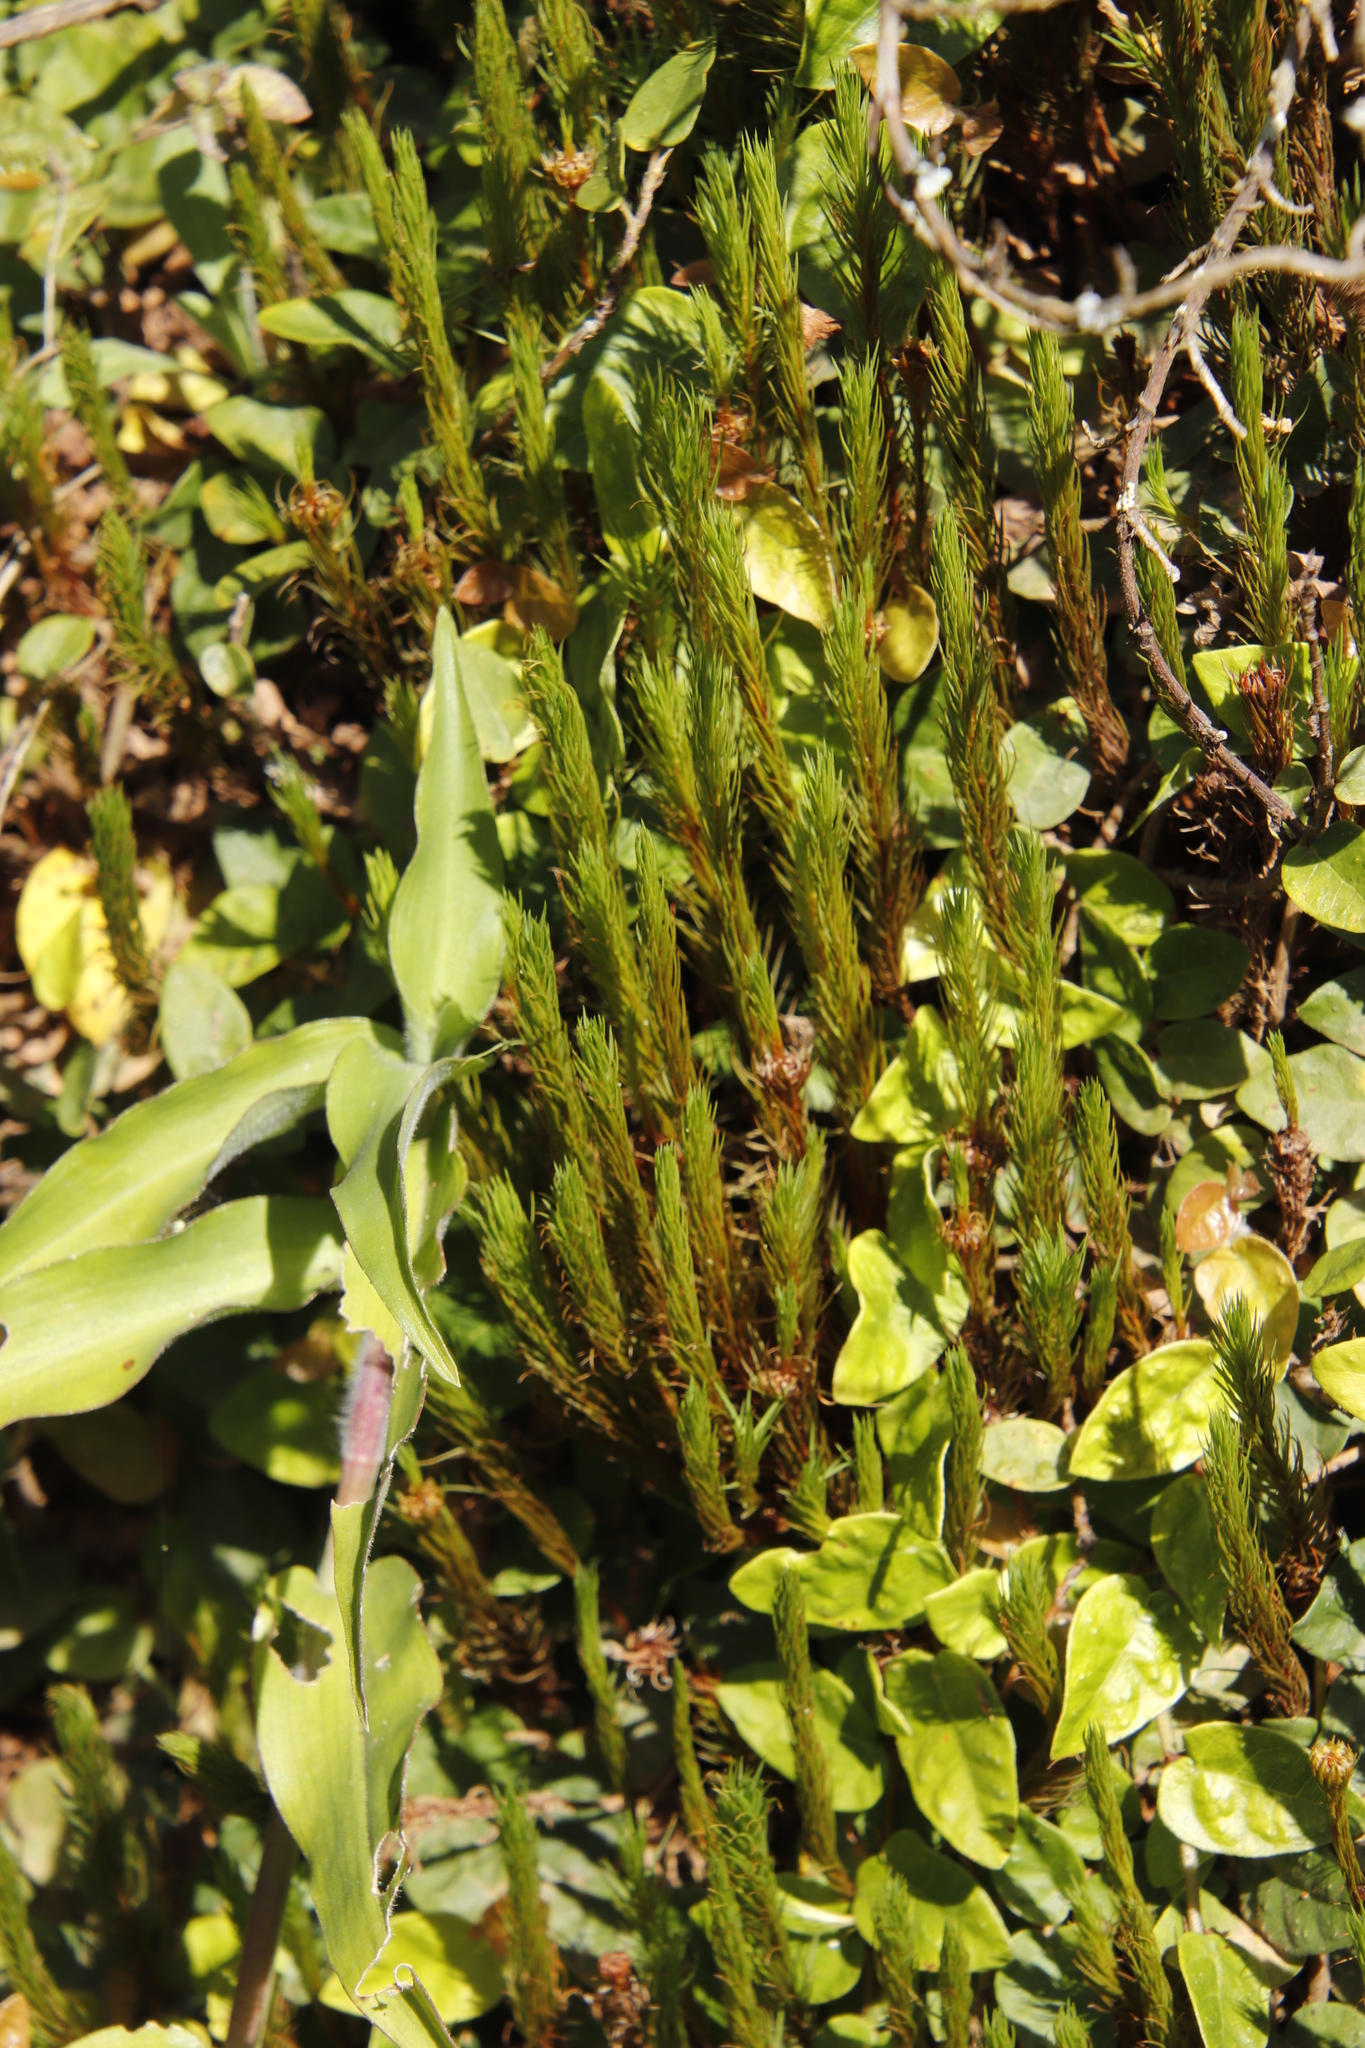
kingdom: Plantae
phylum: Bryophyta
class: Polytrichopsida
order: Polytrichales
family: Polytrichaceae
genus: Polytrichum
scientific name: Polytrichum subpilosum
